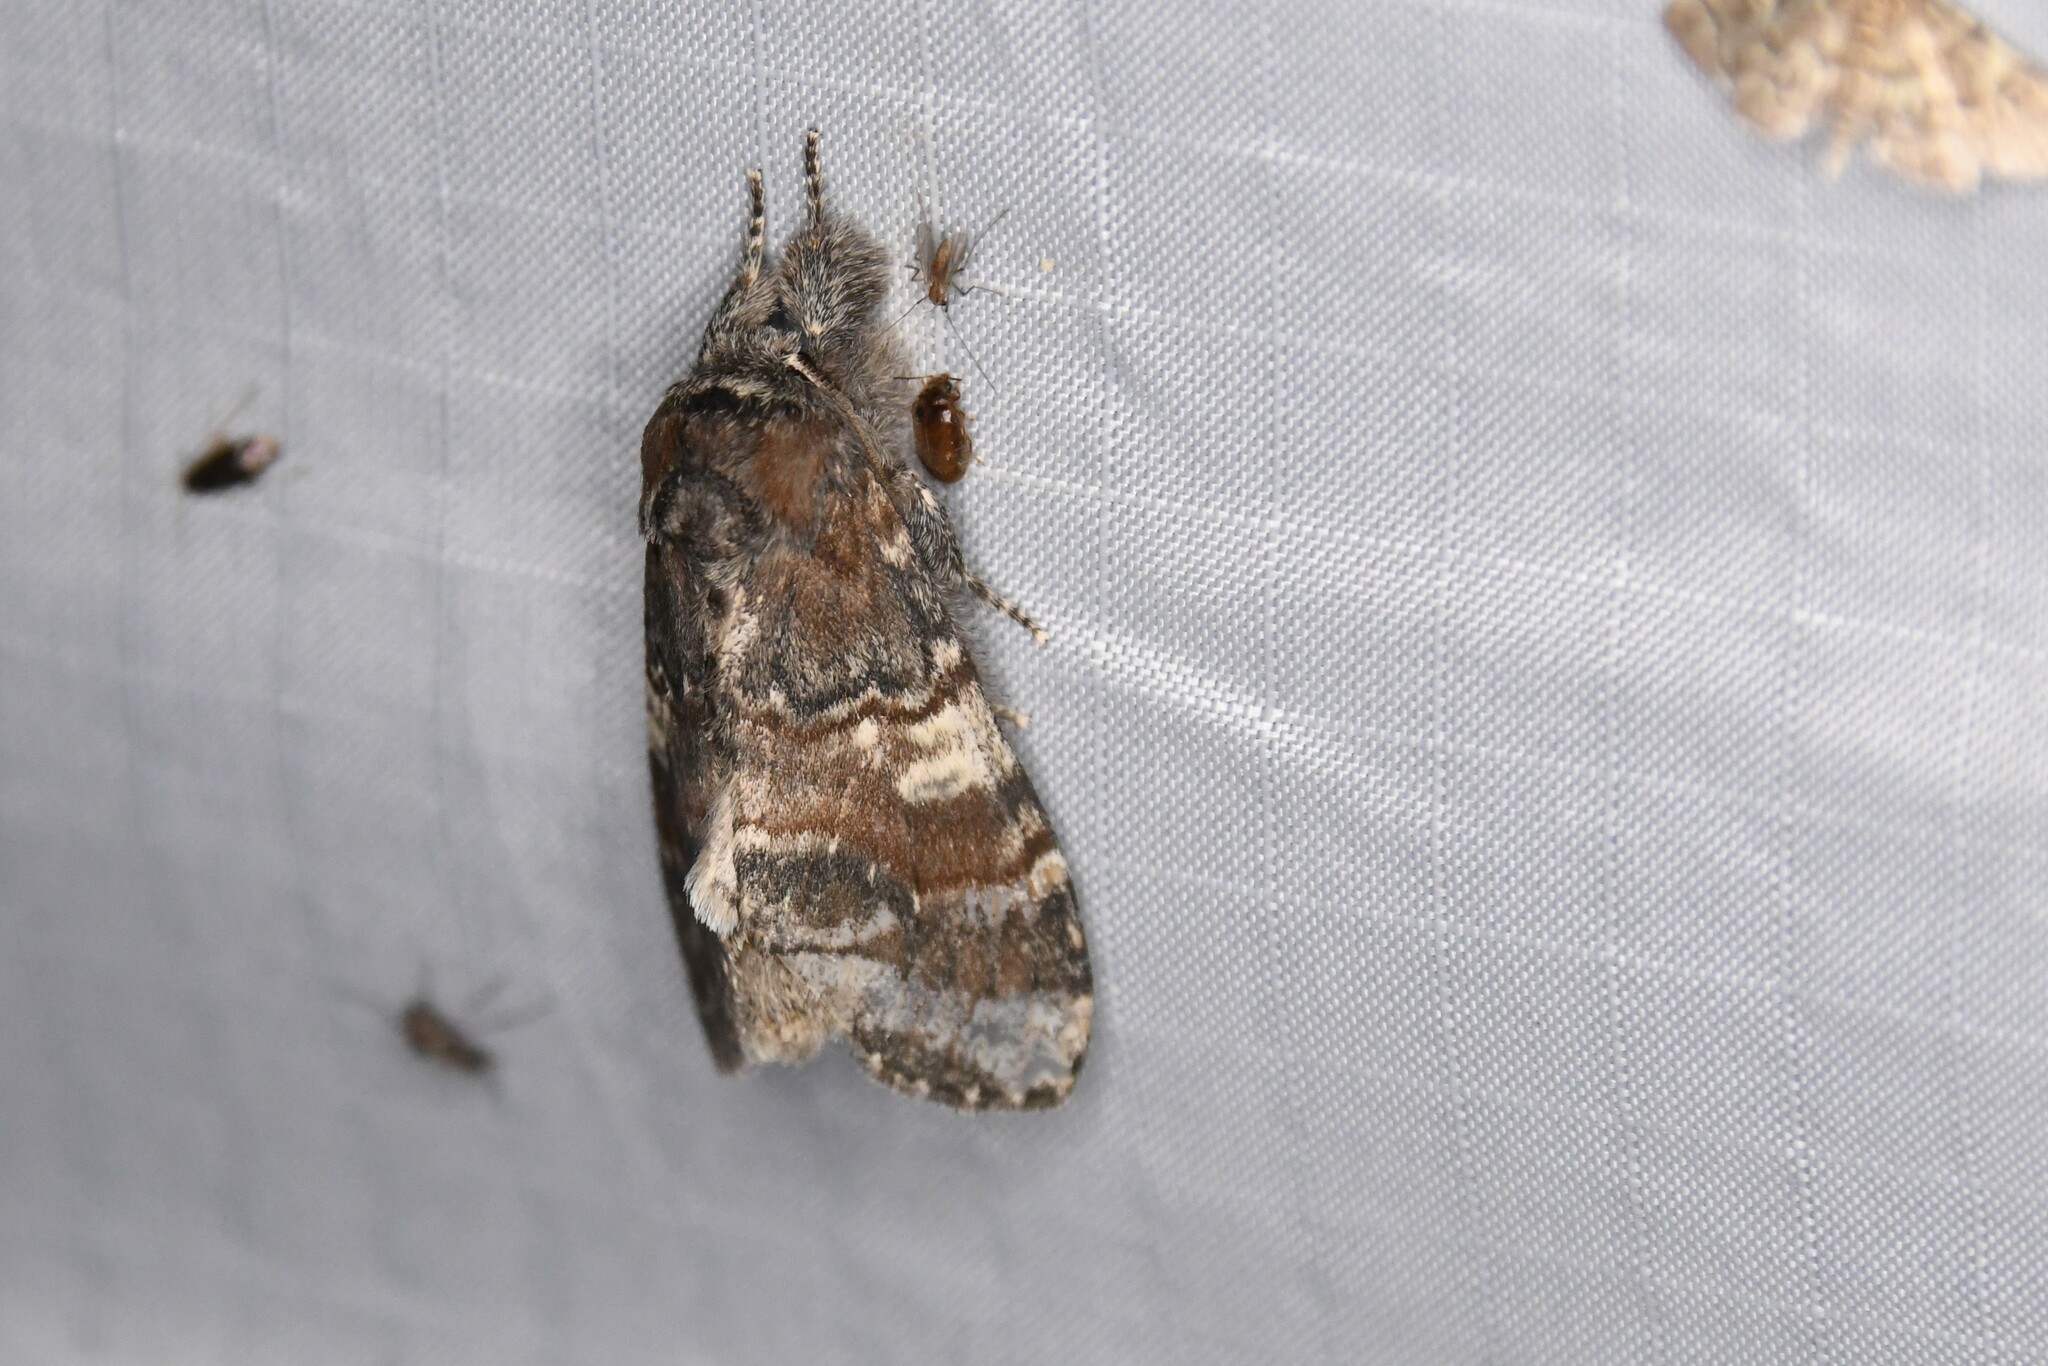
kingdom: Animalia
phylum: Arthropoda
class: Insecta
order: Lepidoptera
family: Notodontidae
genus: Peridea
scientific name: Peridea ferruginea
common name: Chocolate prominent
